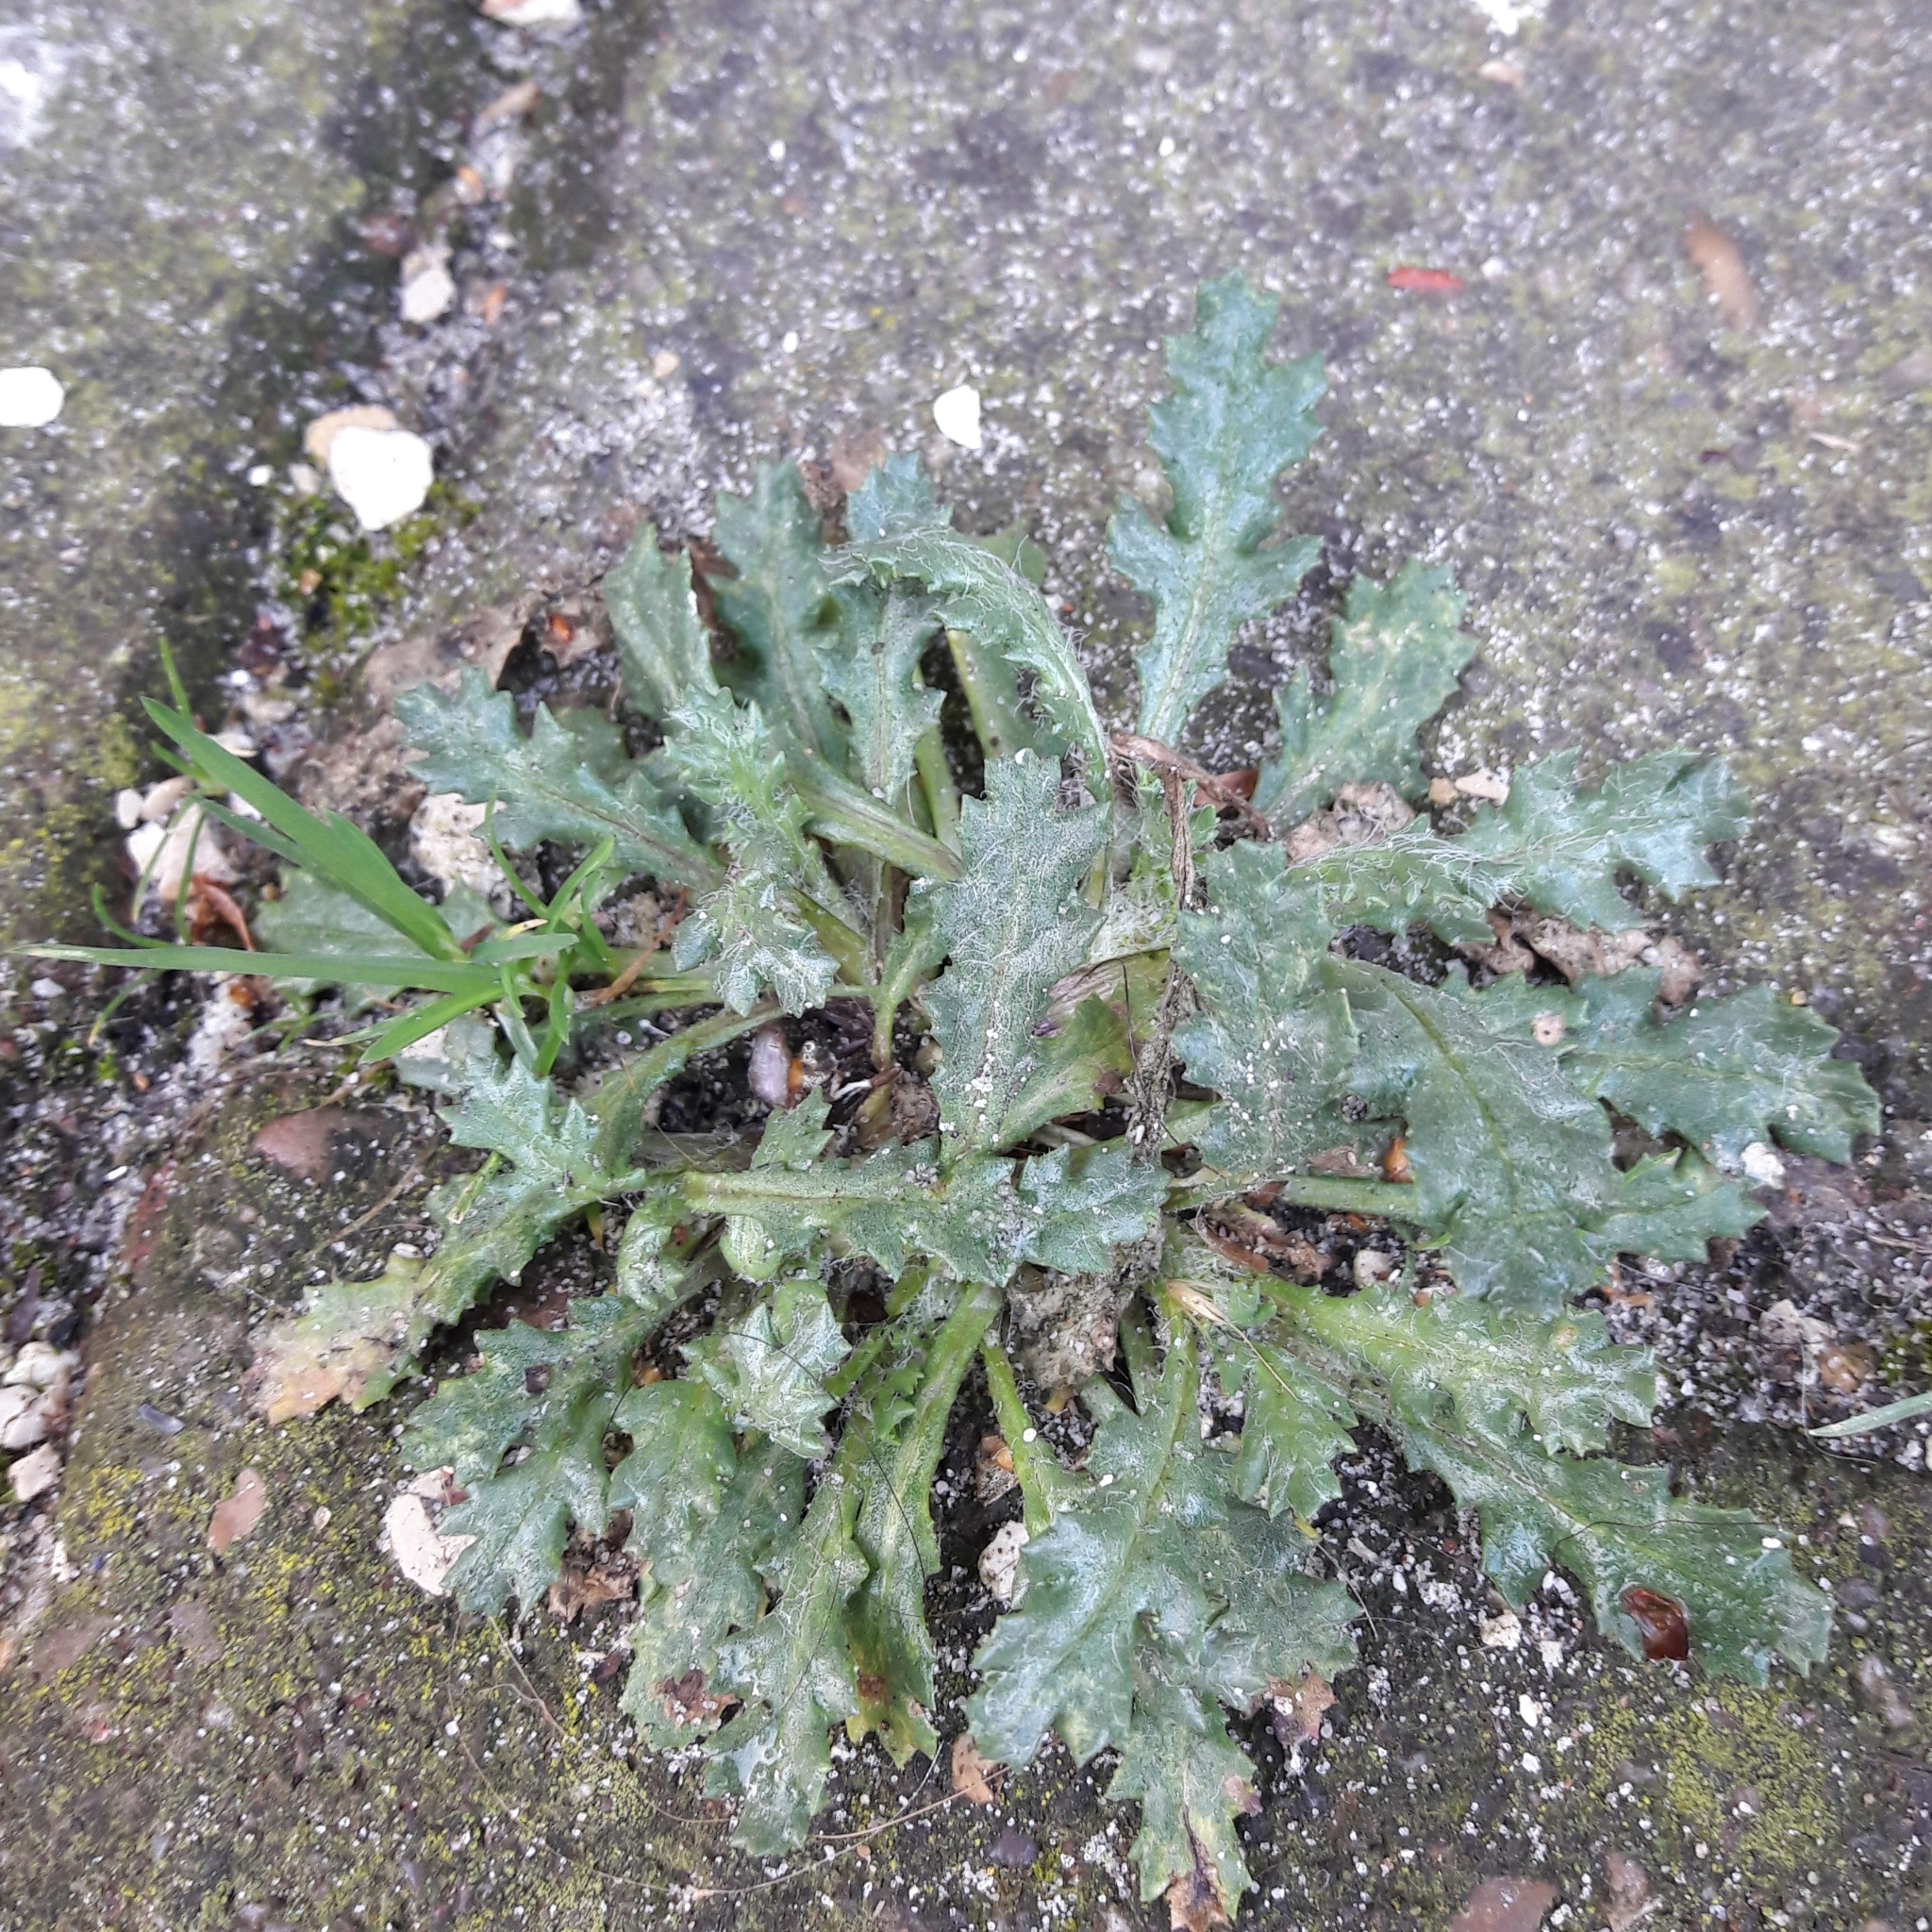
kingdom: Plantae
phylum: Tracheophyta
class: Magnoliopsida
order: Asterales
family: Asteraceae
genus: Senecio
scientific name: Senecio vulgaris
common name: Old-man-in-the-spring
